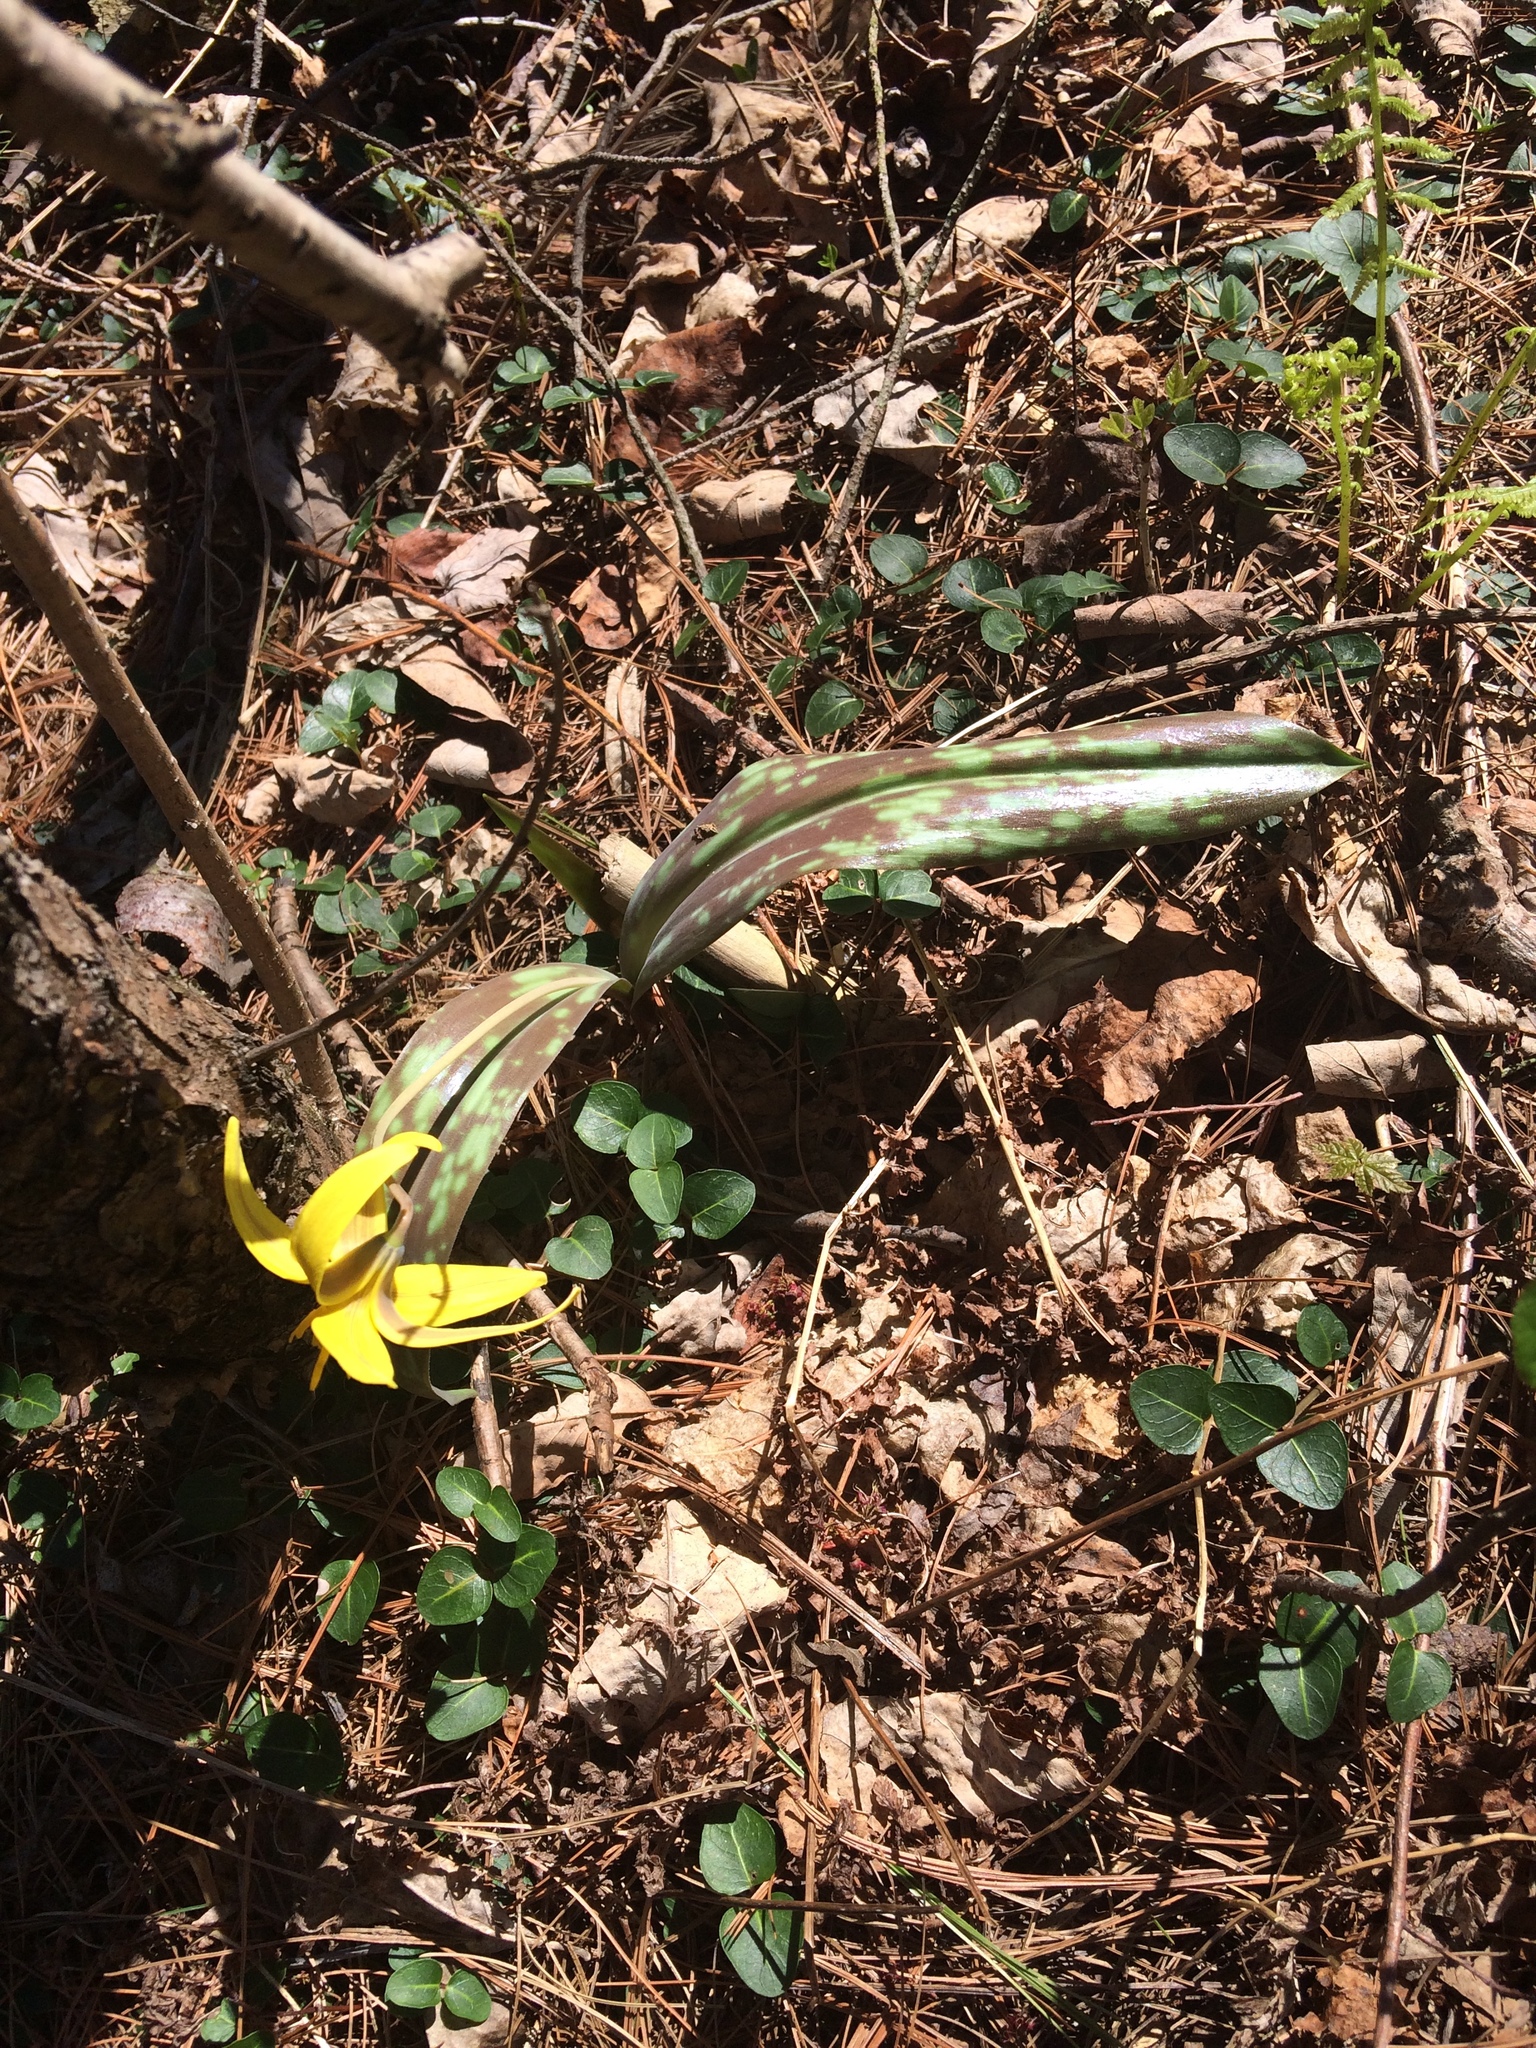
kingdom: Plantae
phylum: Tracheophyta
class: Liliopsida
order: Liliales
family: Liliaceae
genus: Erythronium
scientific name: Erythronium americanum
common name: Yellow adder's-tongue
